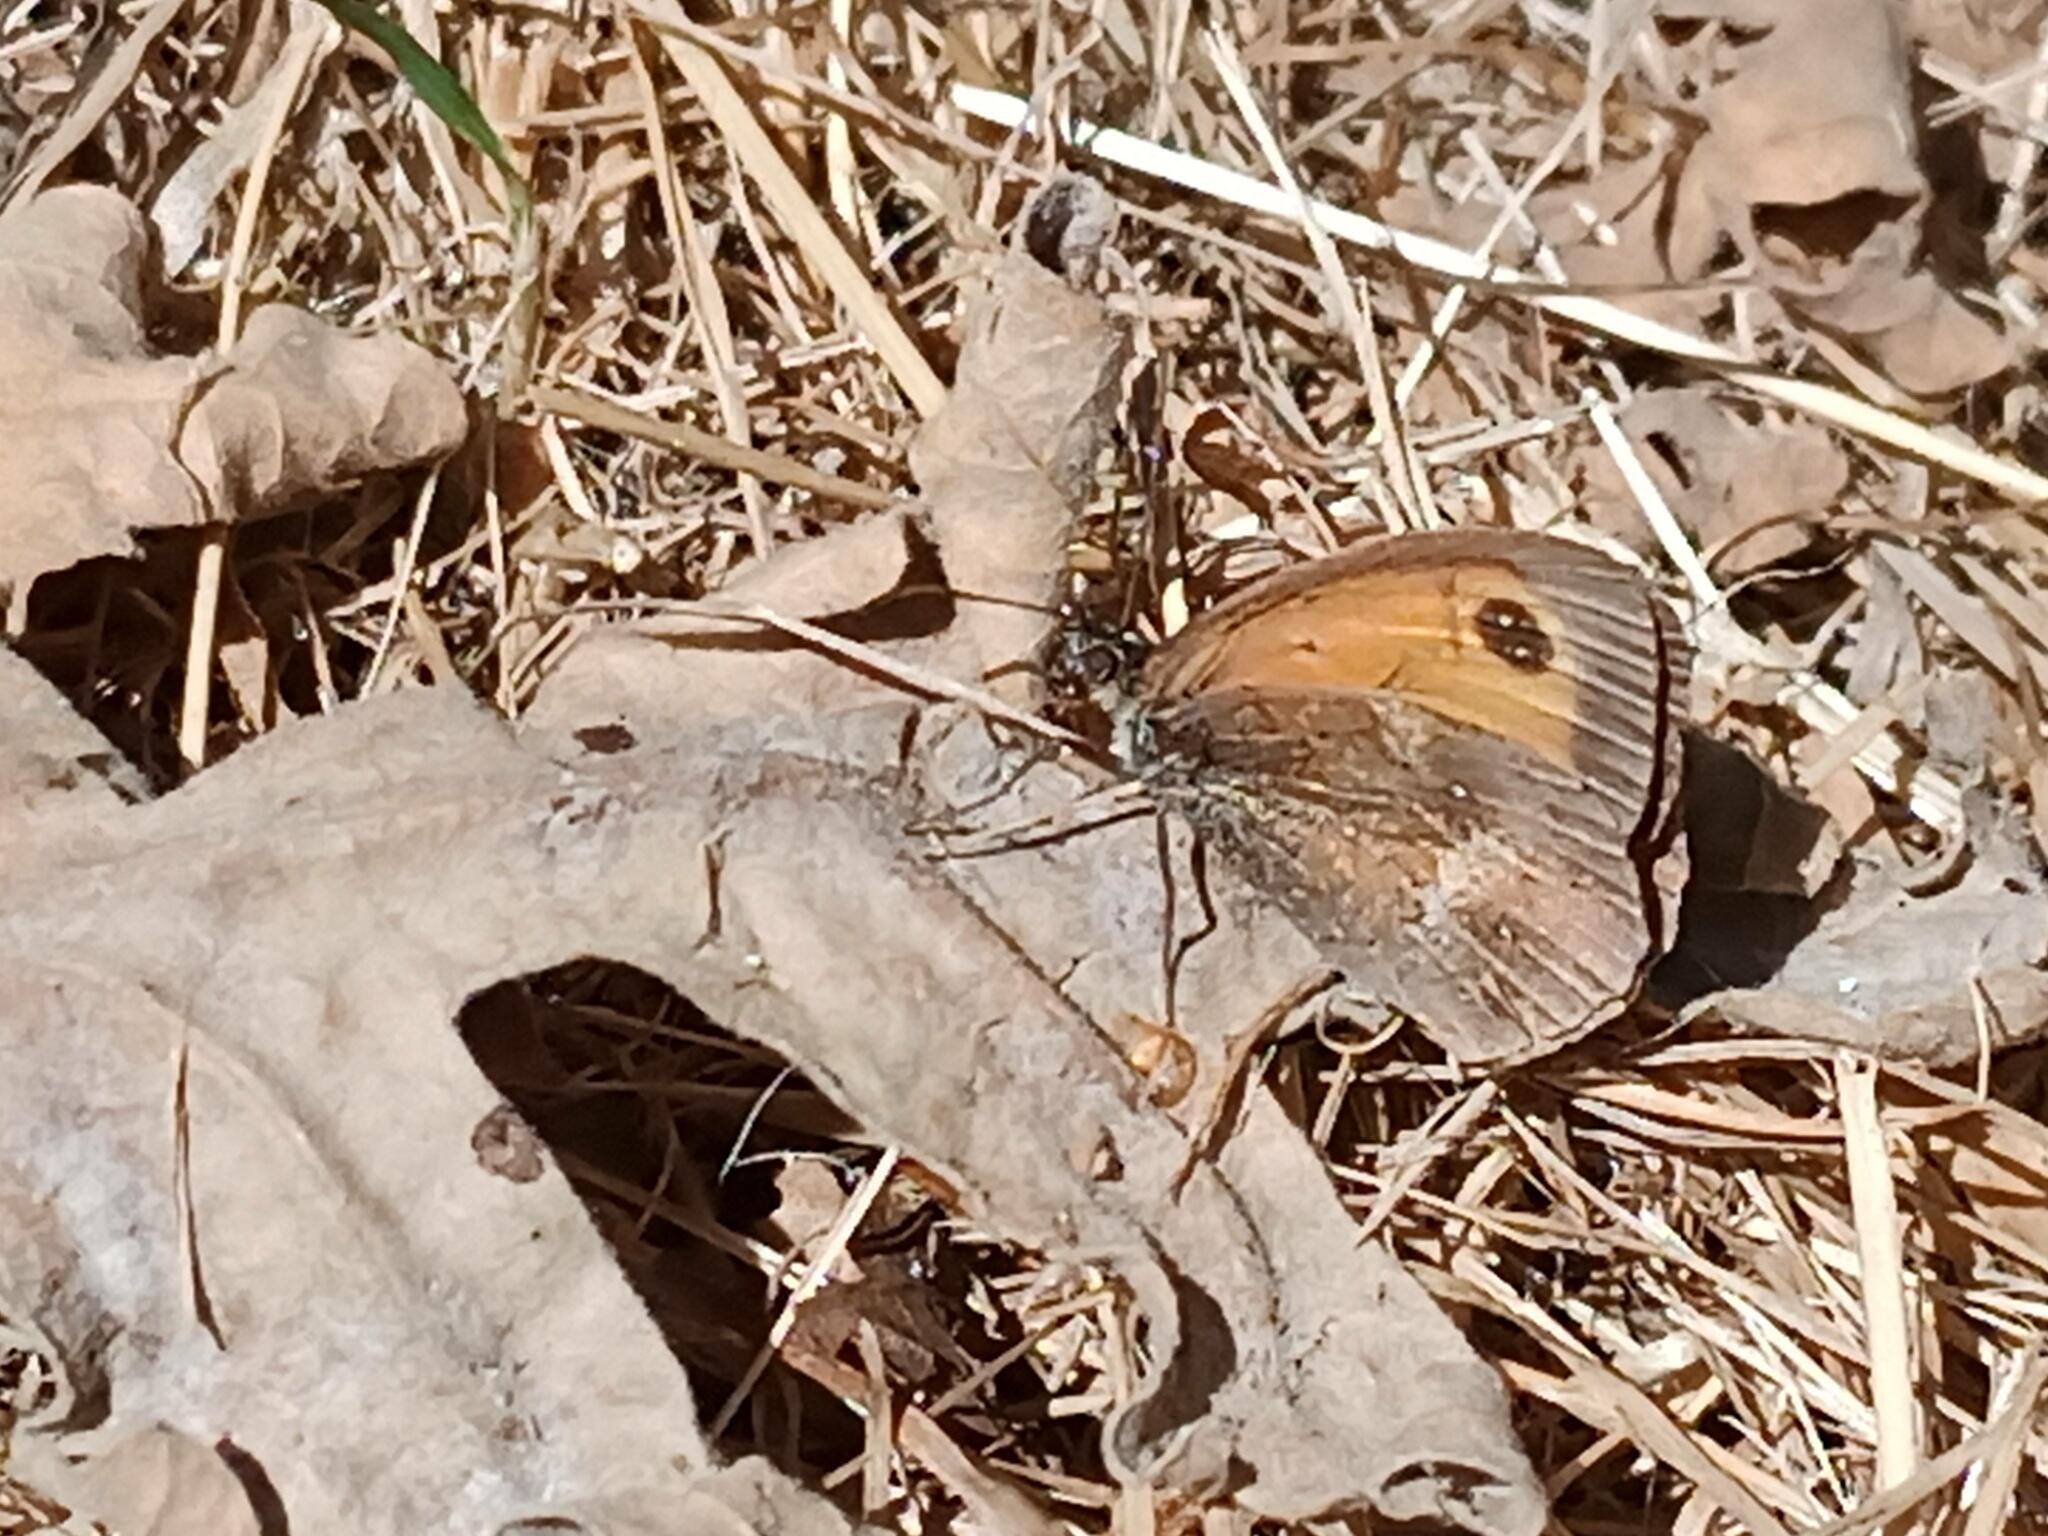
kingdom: Animalia
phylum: Arthropoda
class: Insecta
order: Lepidoptera
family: Nymphalidae
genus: Pyronia
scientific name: Pyronia tithonus
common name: Gatekeeper
